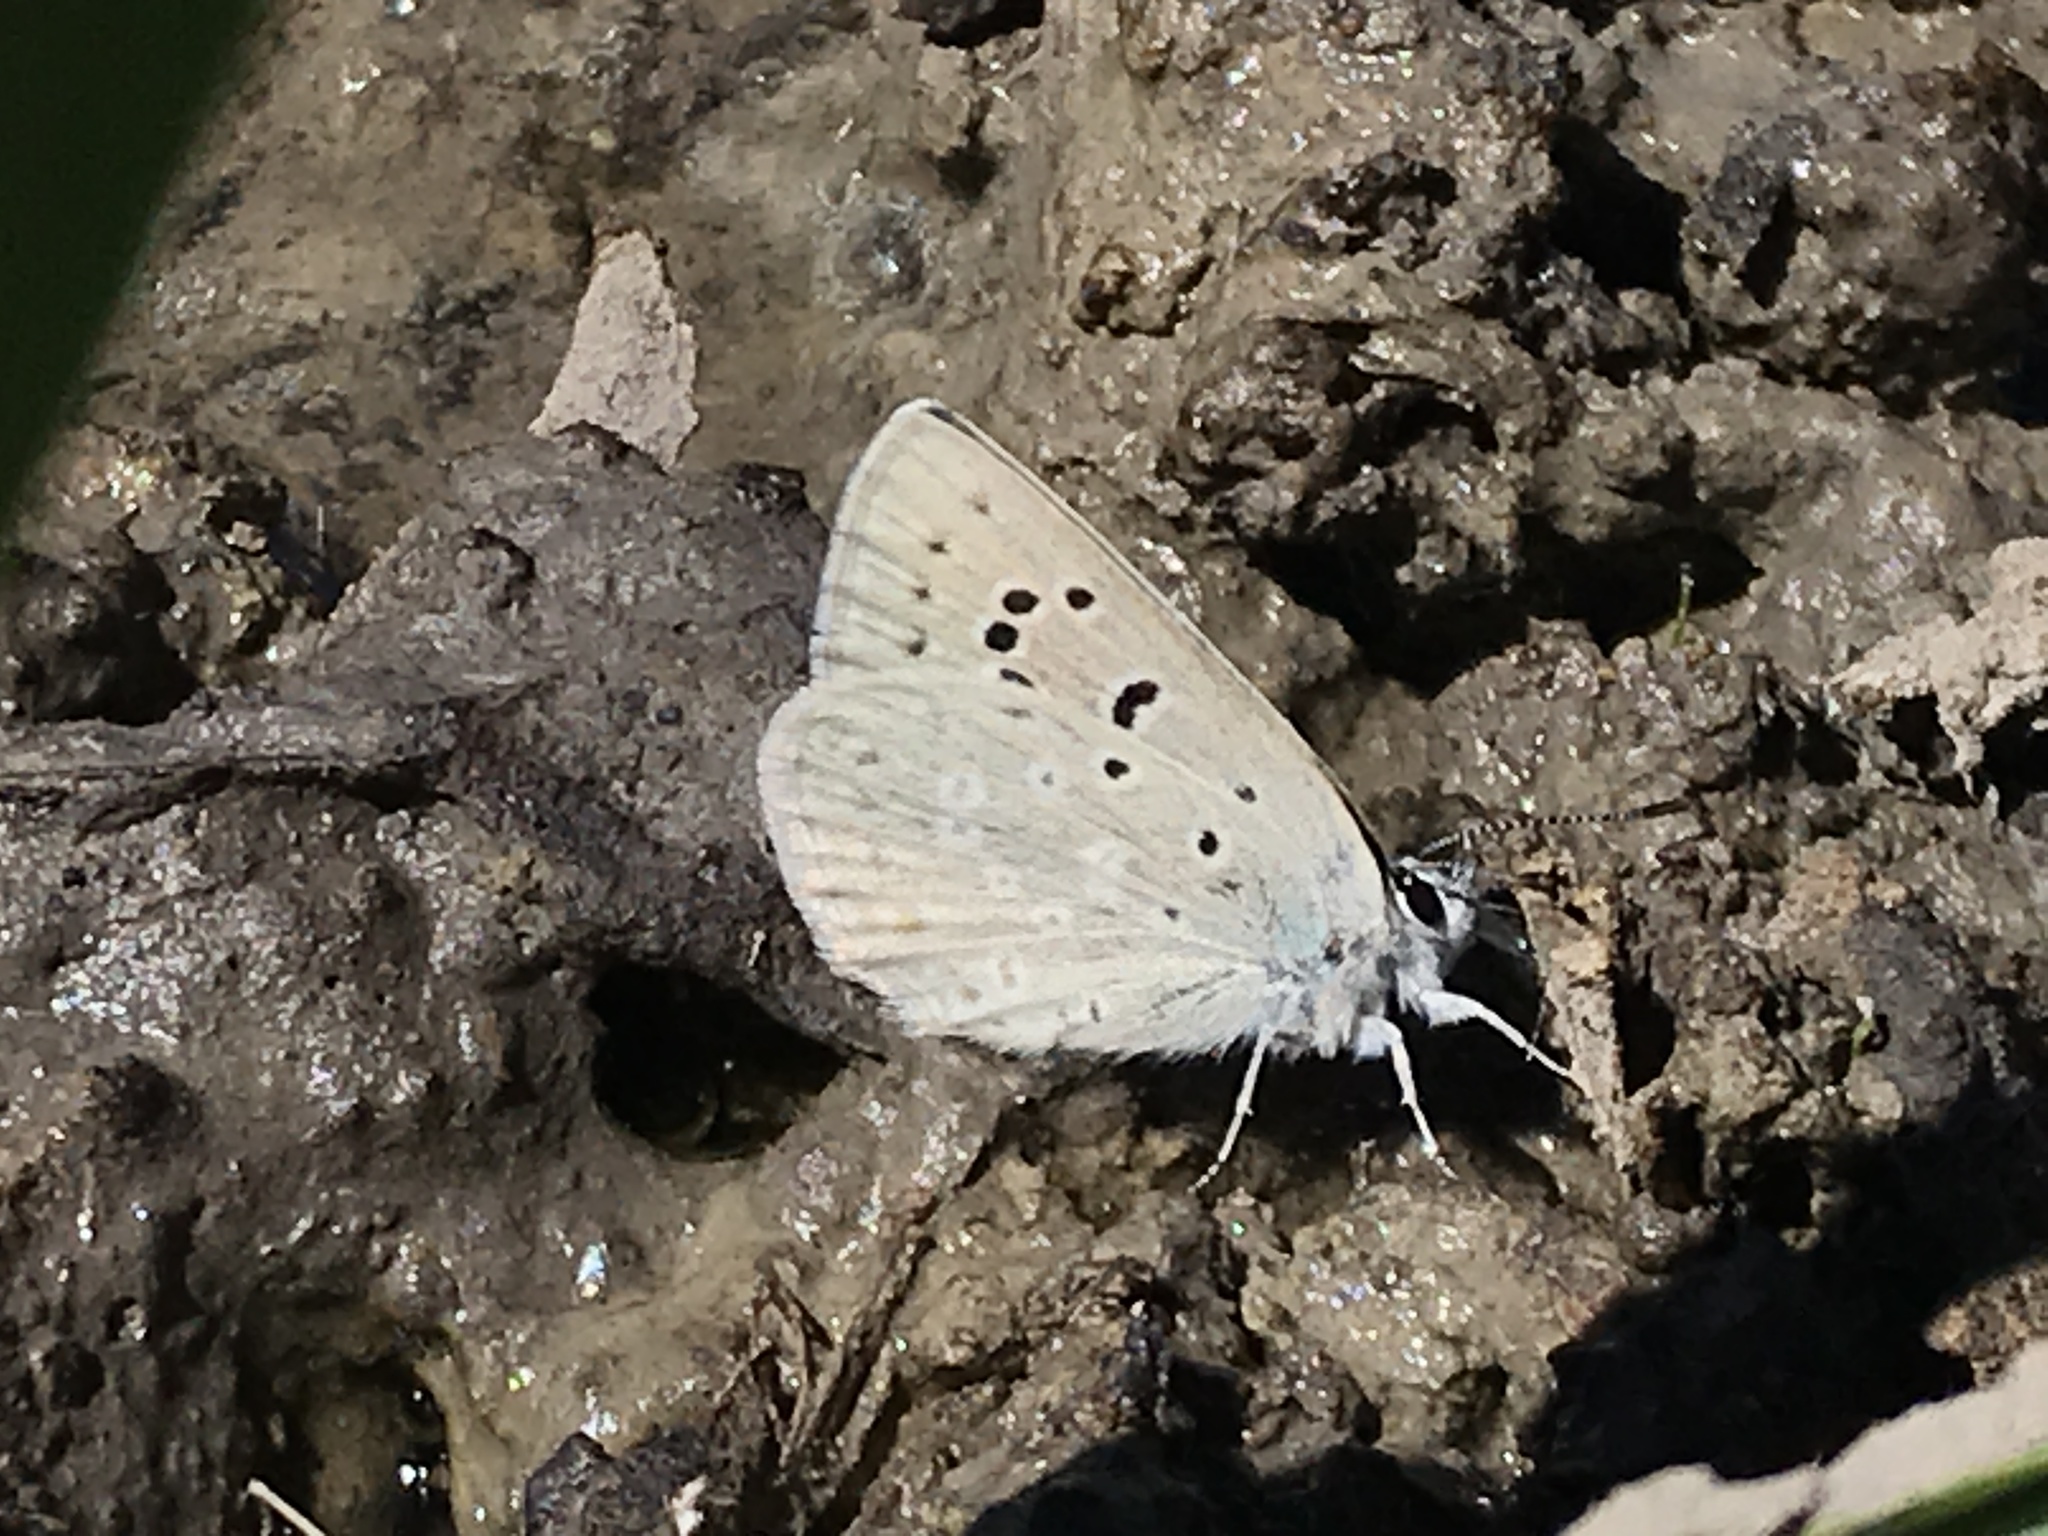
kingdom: Animalia
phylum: Arthropoda
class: Insecta
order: Lepidoptera
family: Lycaenidae
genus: Icaricia
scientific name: Icaricia icarioides
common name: Boisduval's blue
